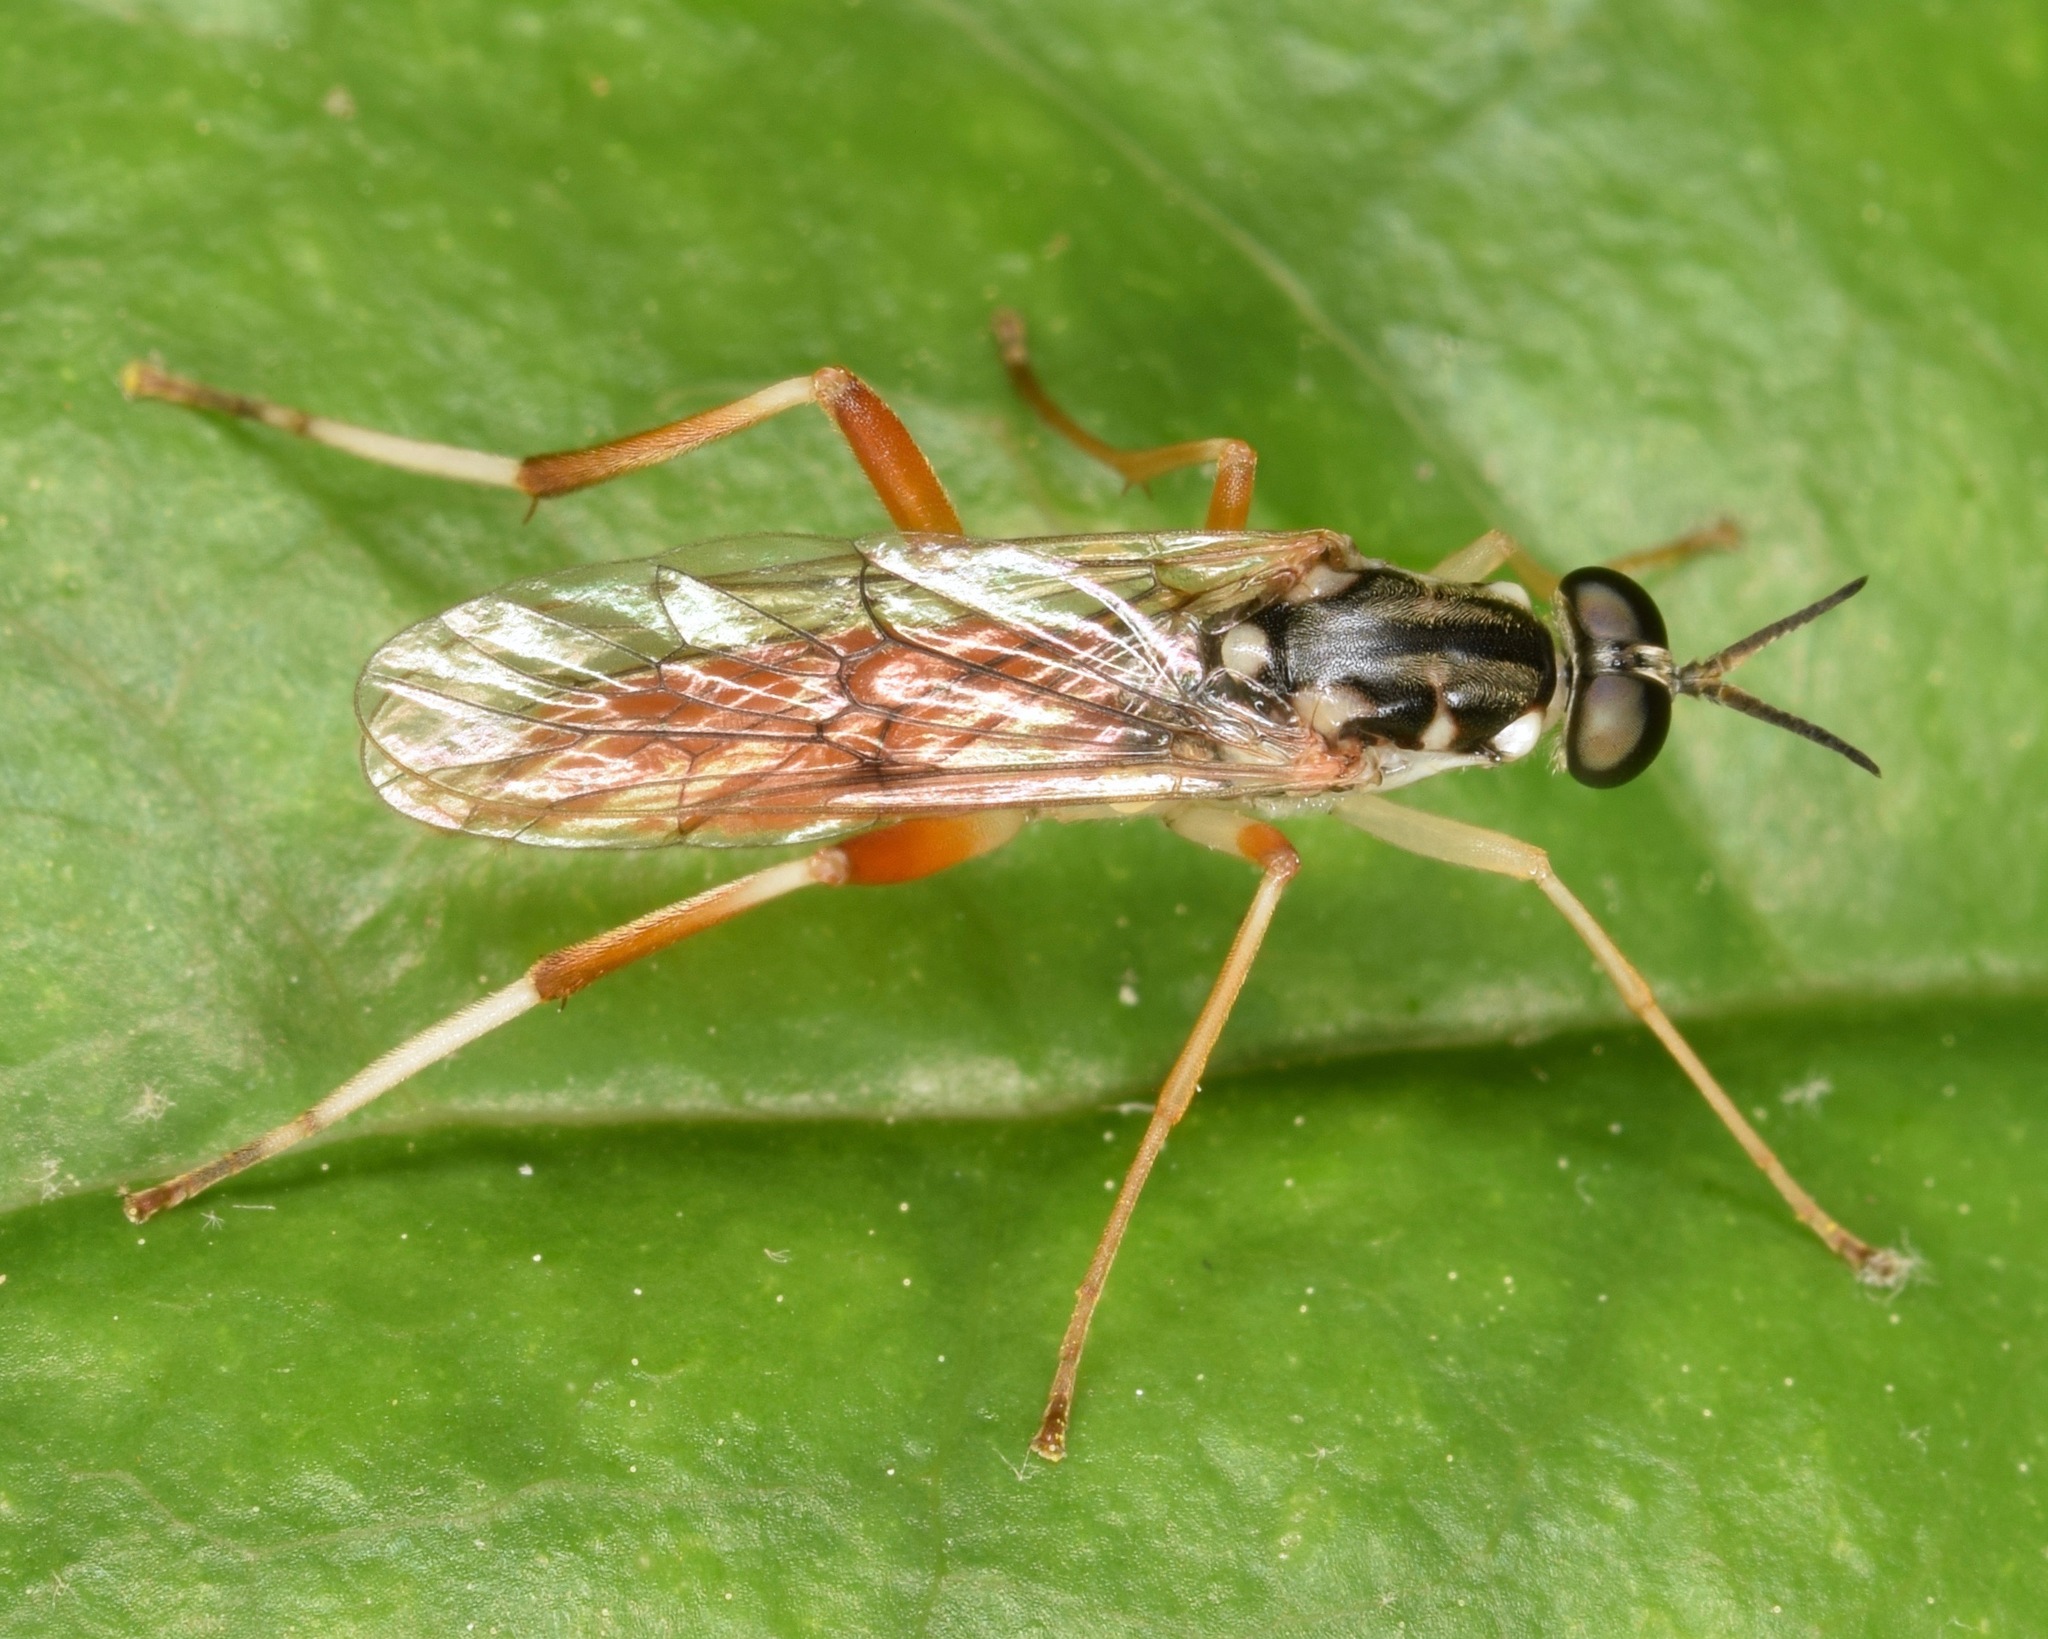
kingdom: Animalia
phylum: Arthropoda
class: Insecta
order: Diptera
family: Xylomyidae
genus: Xylomya
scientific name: Xylomya pallidifemur
